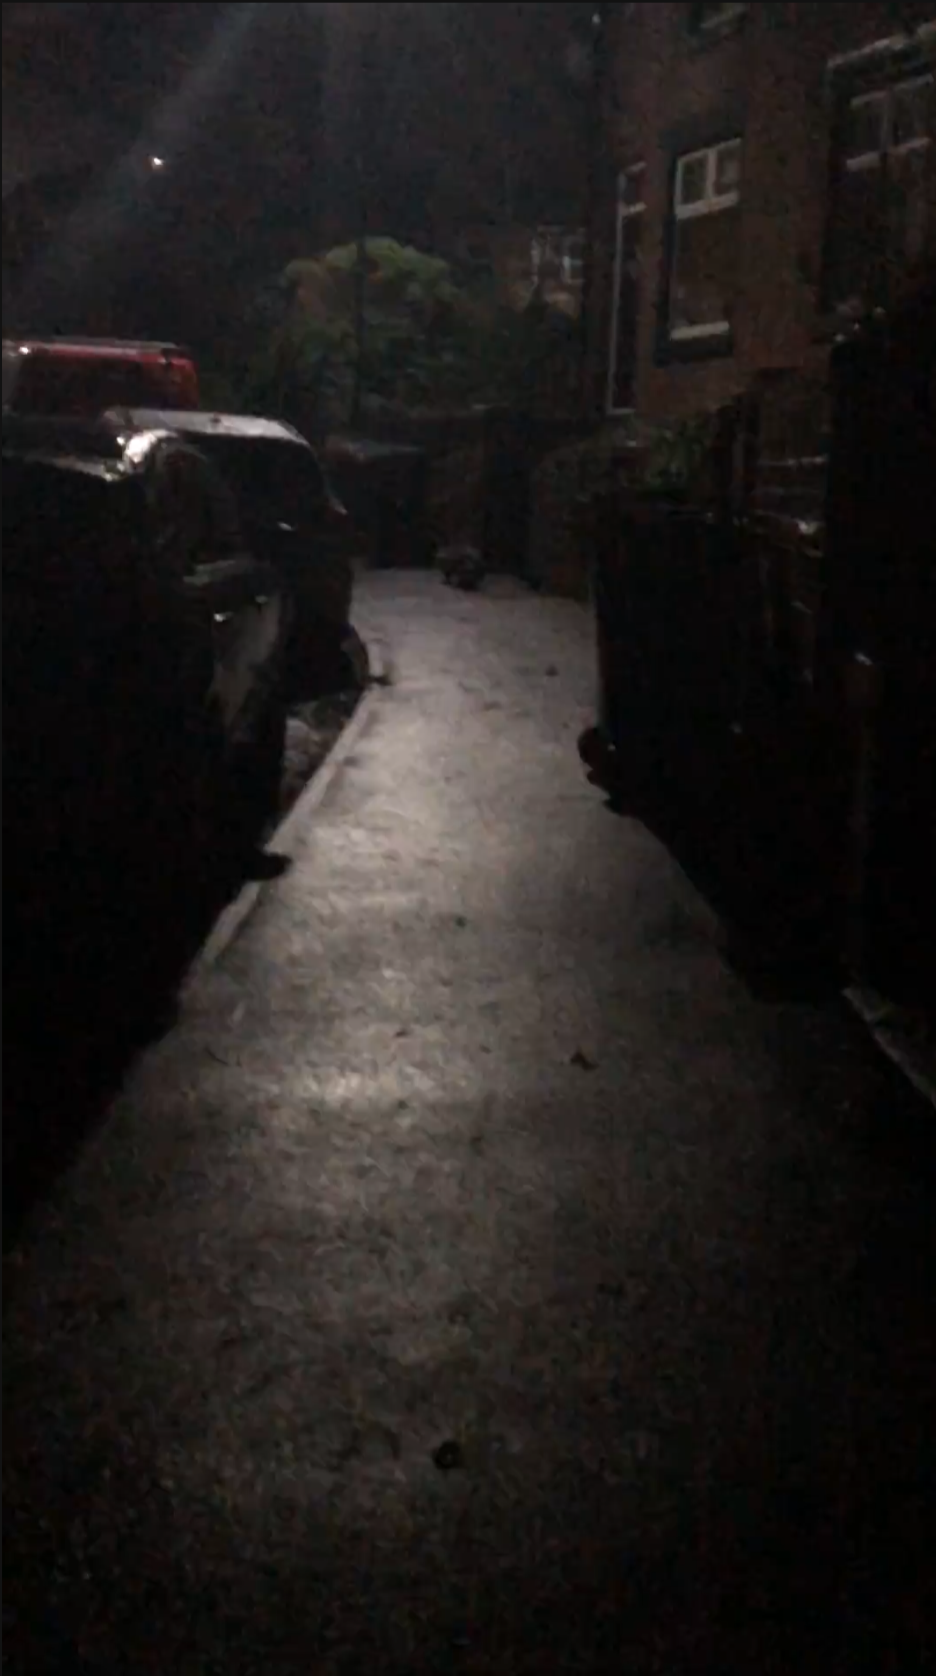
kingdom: Animalia
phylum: Chordata
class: Mammalia
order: Carnivora
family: Mustelidae
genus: Meles
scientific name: Meles meles
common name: Eurasian badger
